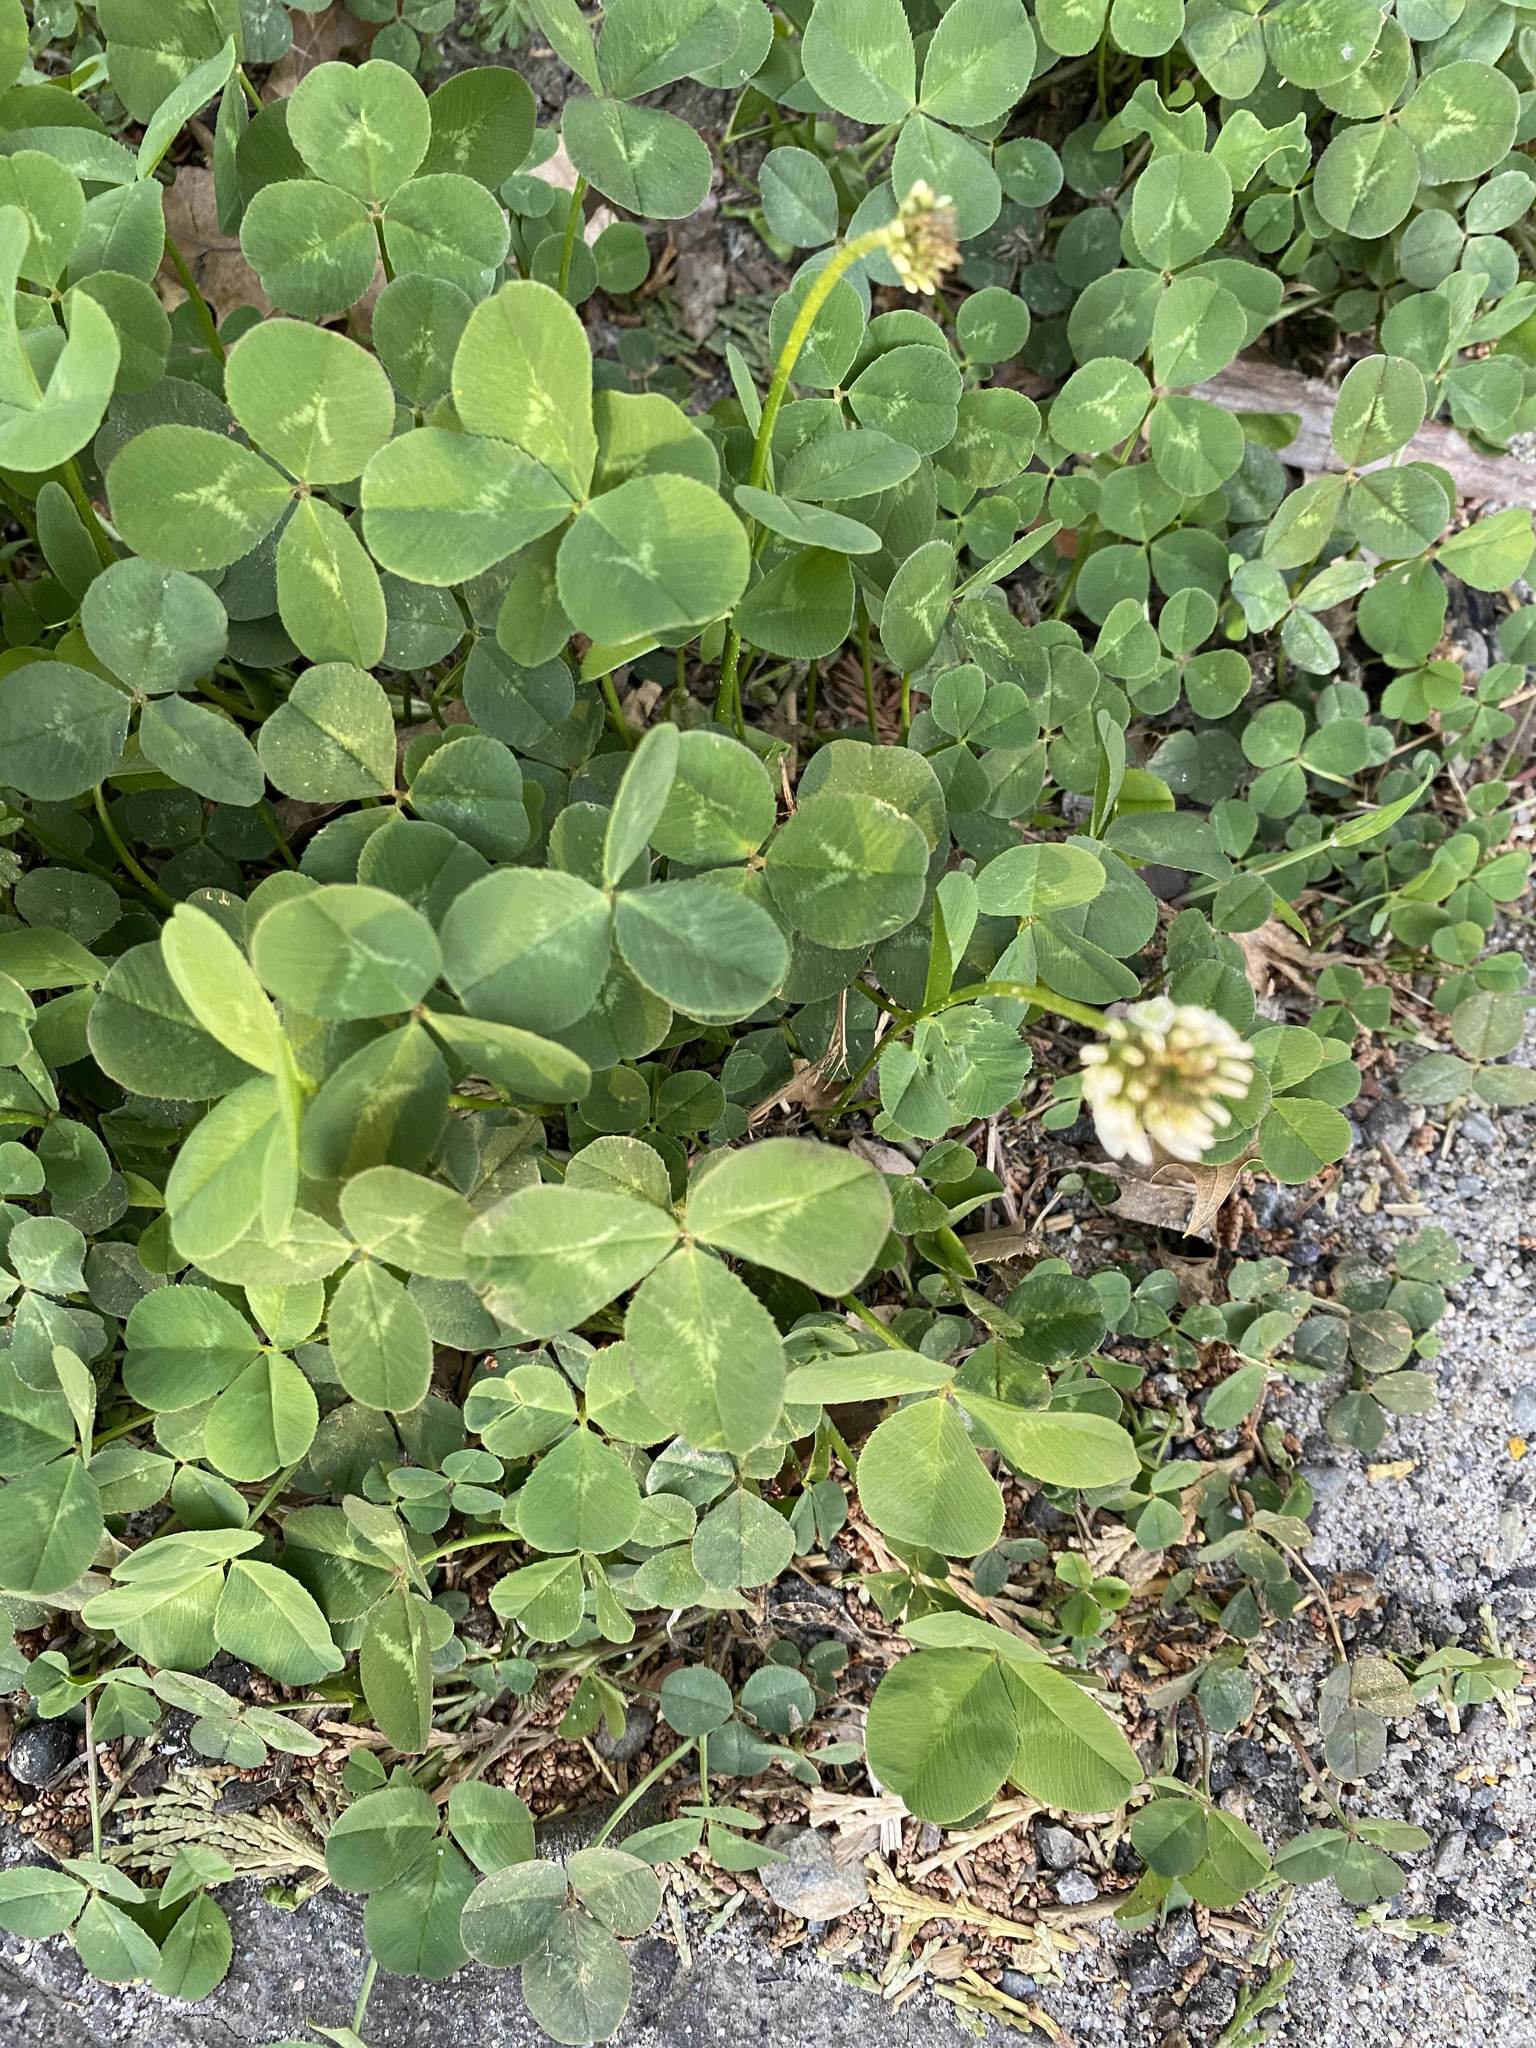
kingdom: Plantae
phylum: Tracheophyta
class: Magnoliopsida
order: Fabales
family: Fabaceae
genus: Trifolium
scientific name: Trifolium repens
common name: White clover
